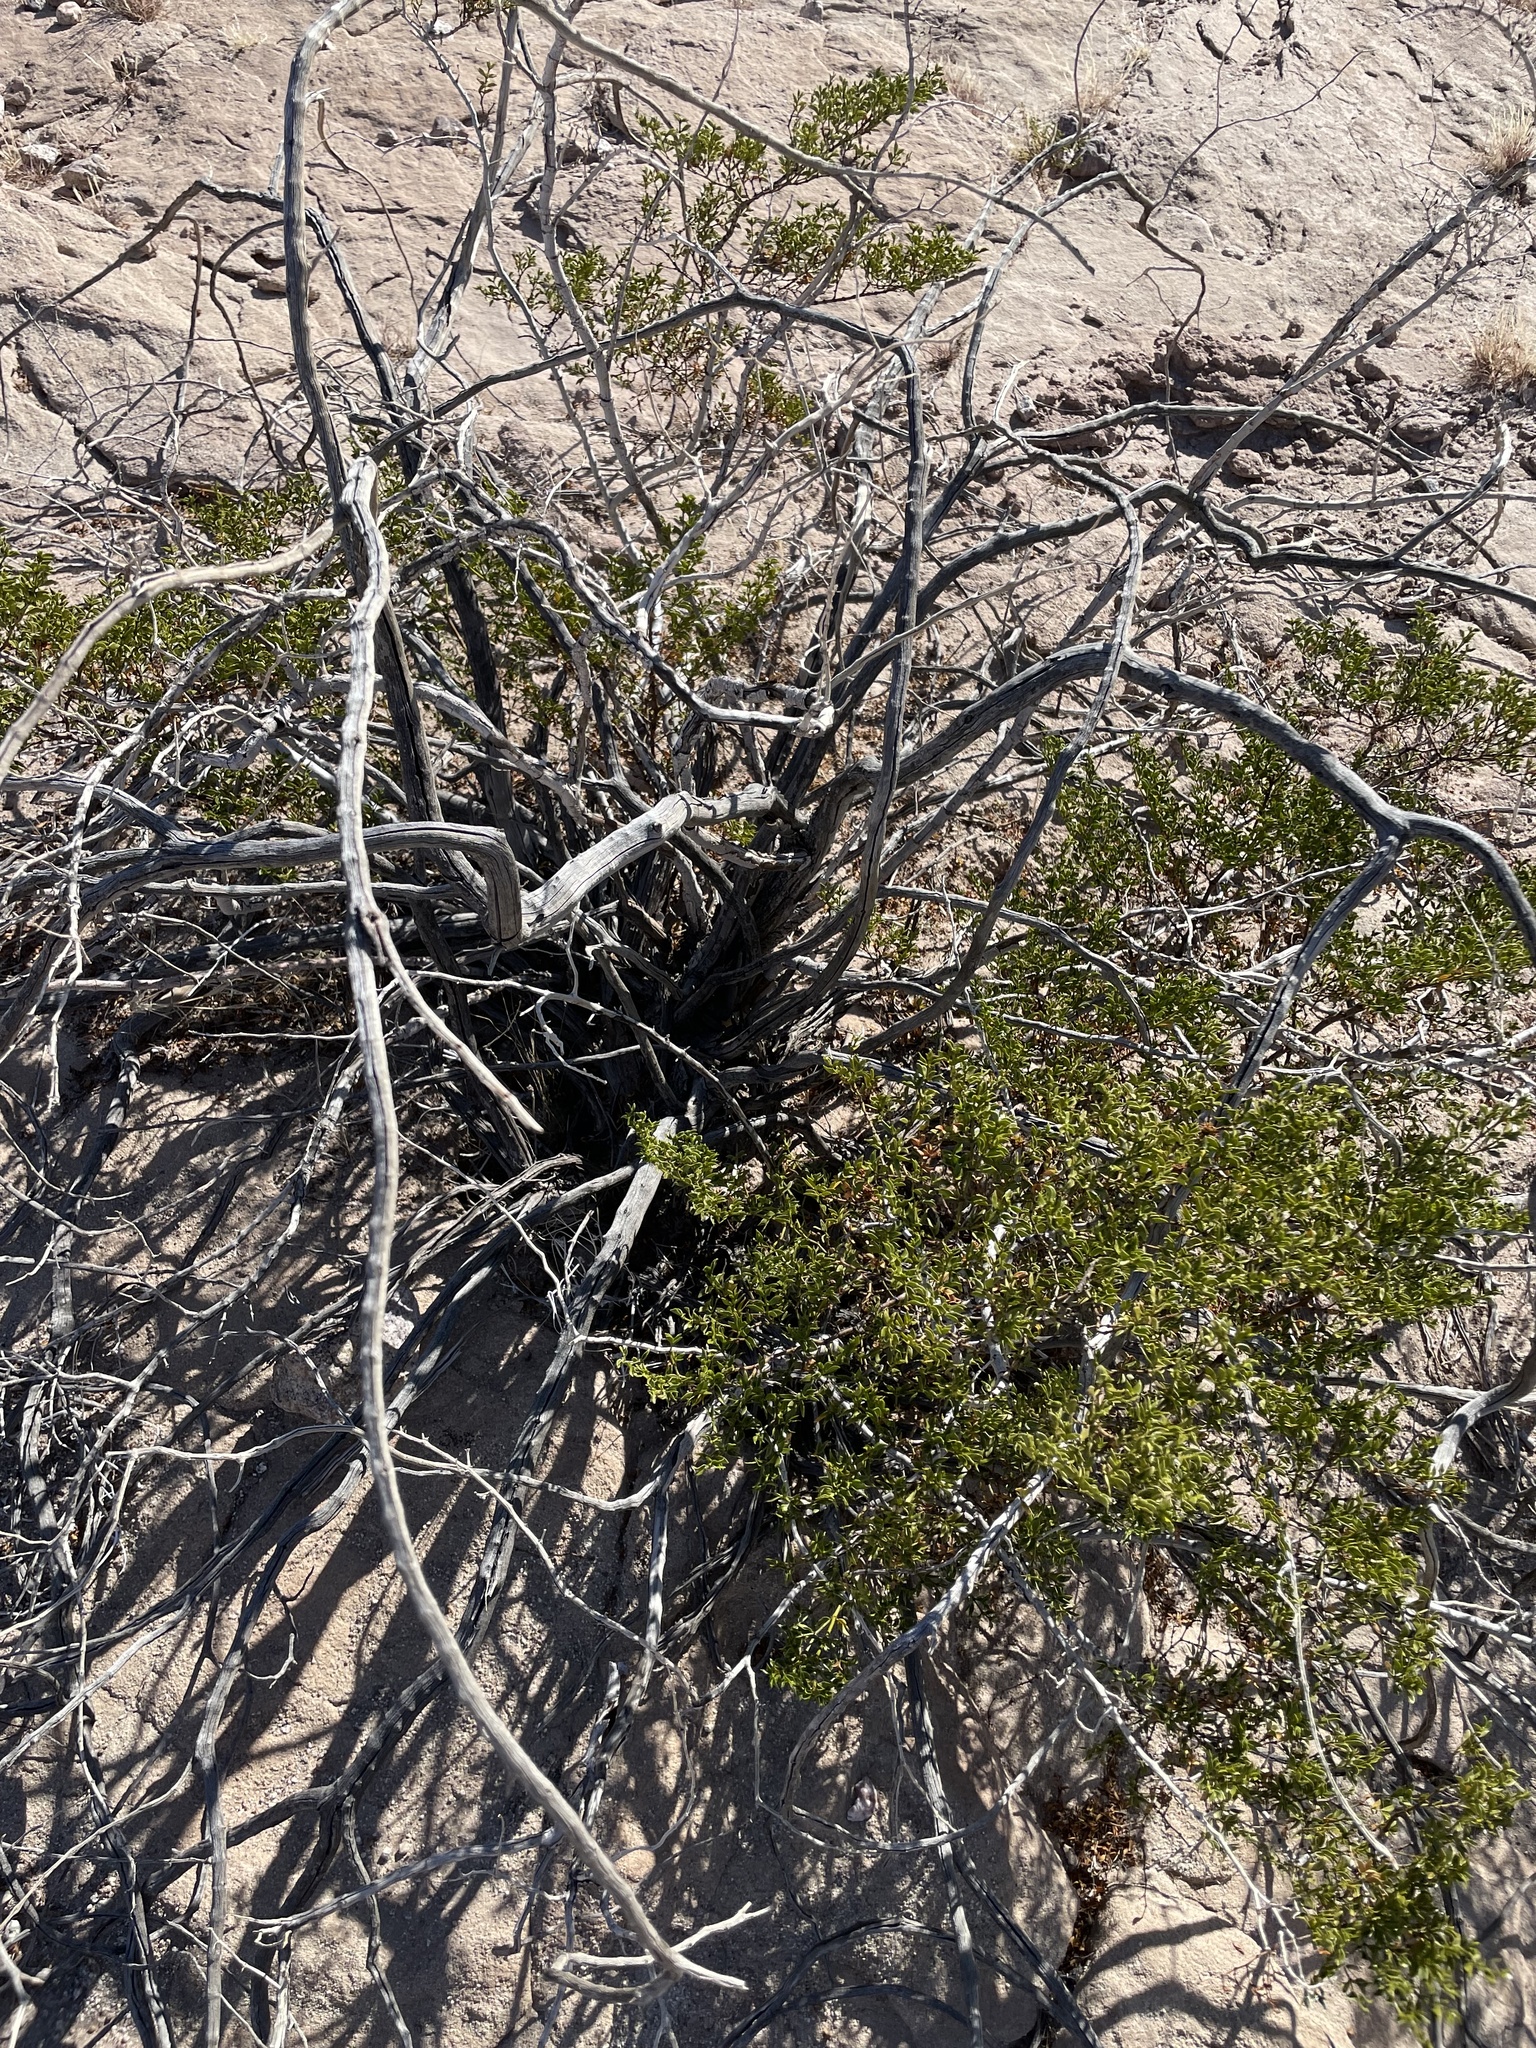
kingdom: Plantae
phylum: Tracheophyta
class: Magnoliopsida
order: Zygophyllales
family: Zygophyllaceae
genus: Larrea
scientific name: Larrea tridentata
